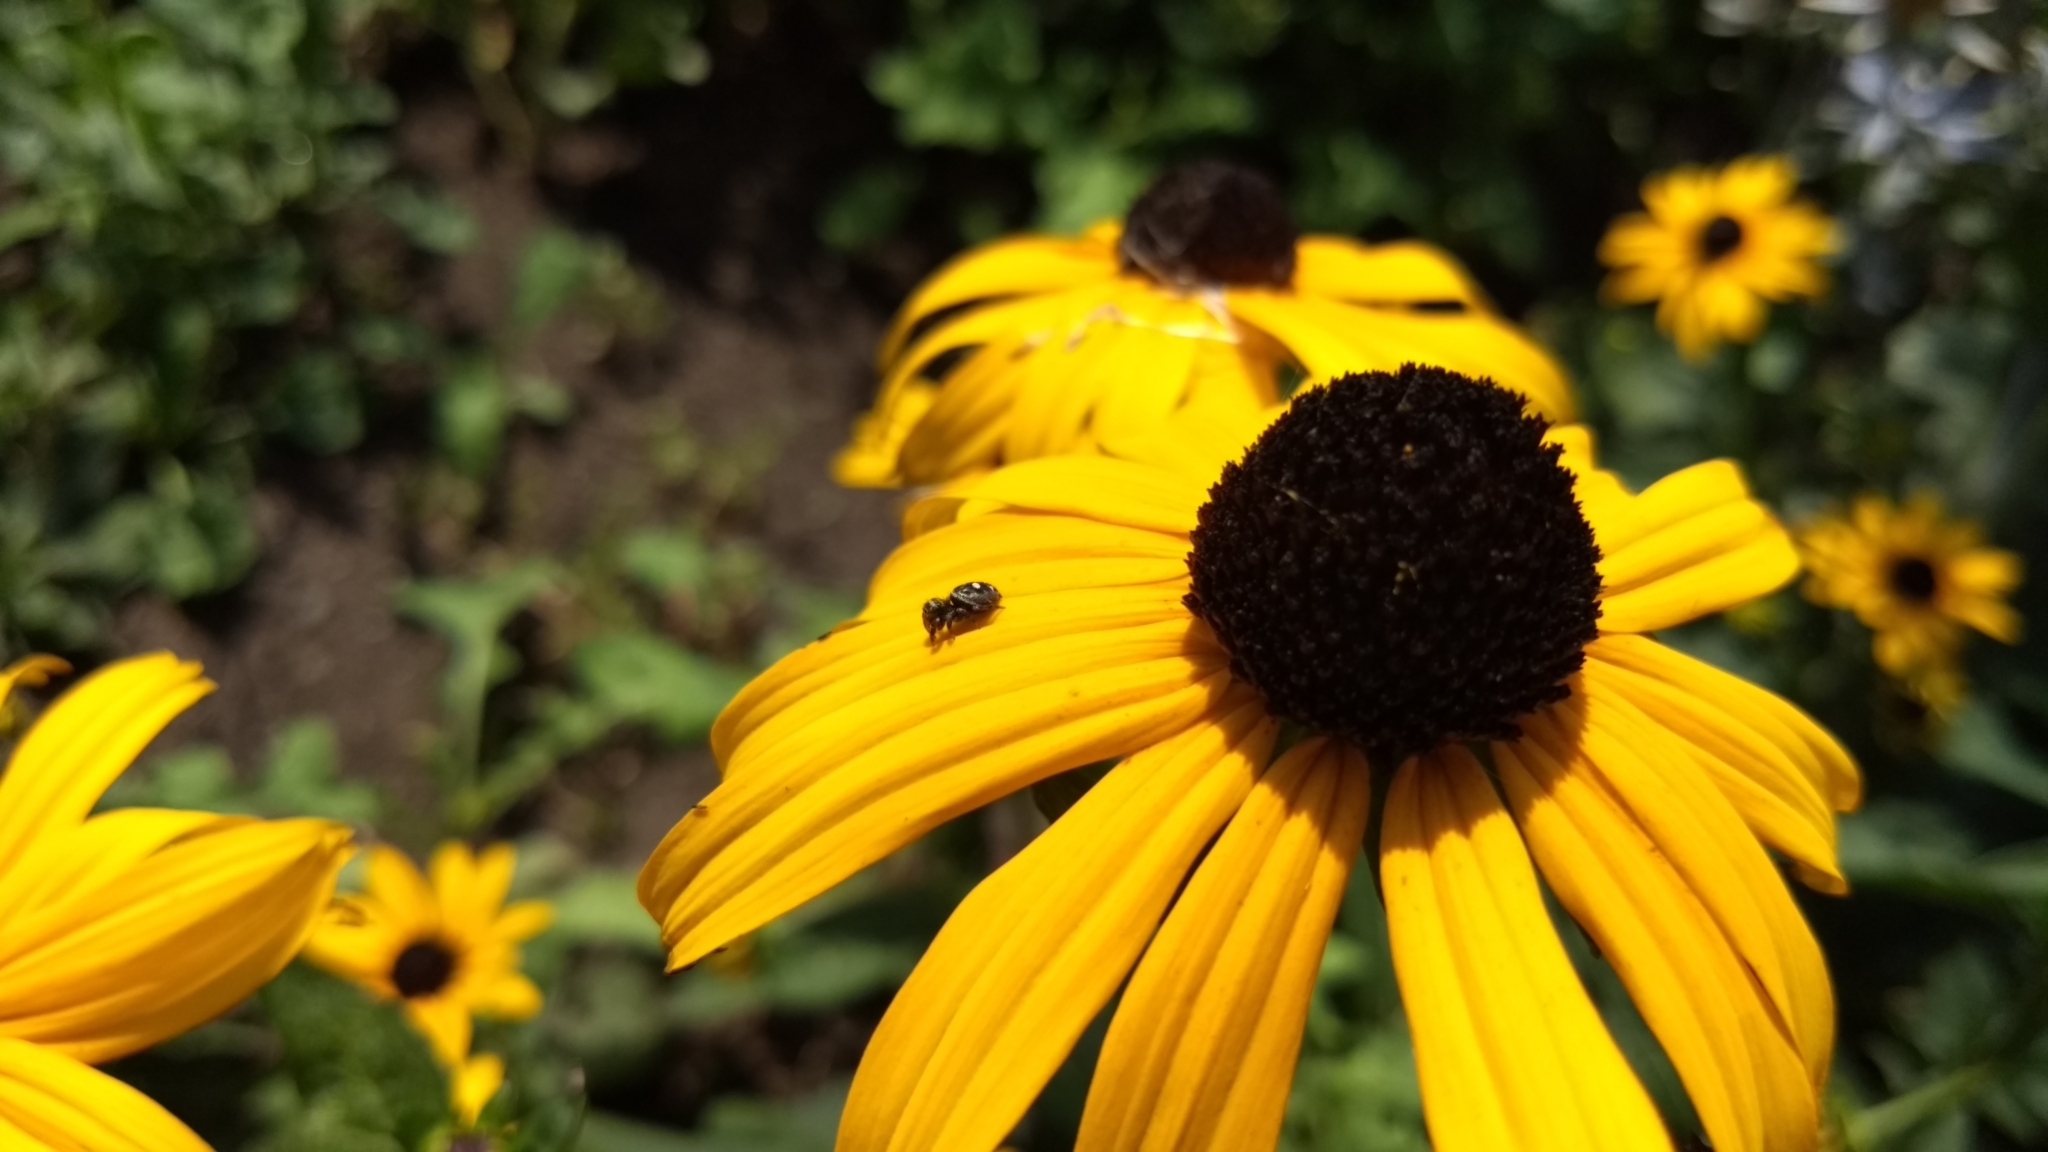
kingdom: Animalia
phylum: Arthropoda
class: Arachnida
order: Araneae
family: Salticidae
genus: Phidippus
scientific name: Phidippus audax
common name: Bold jumper
